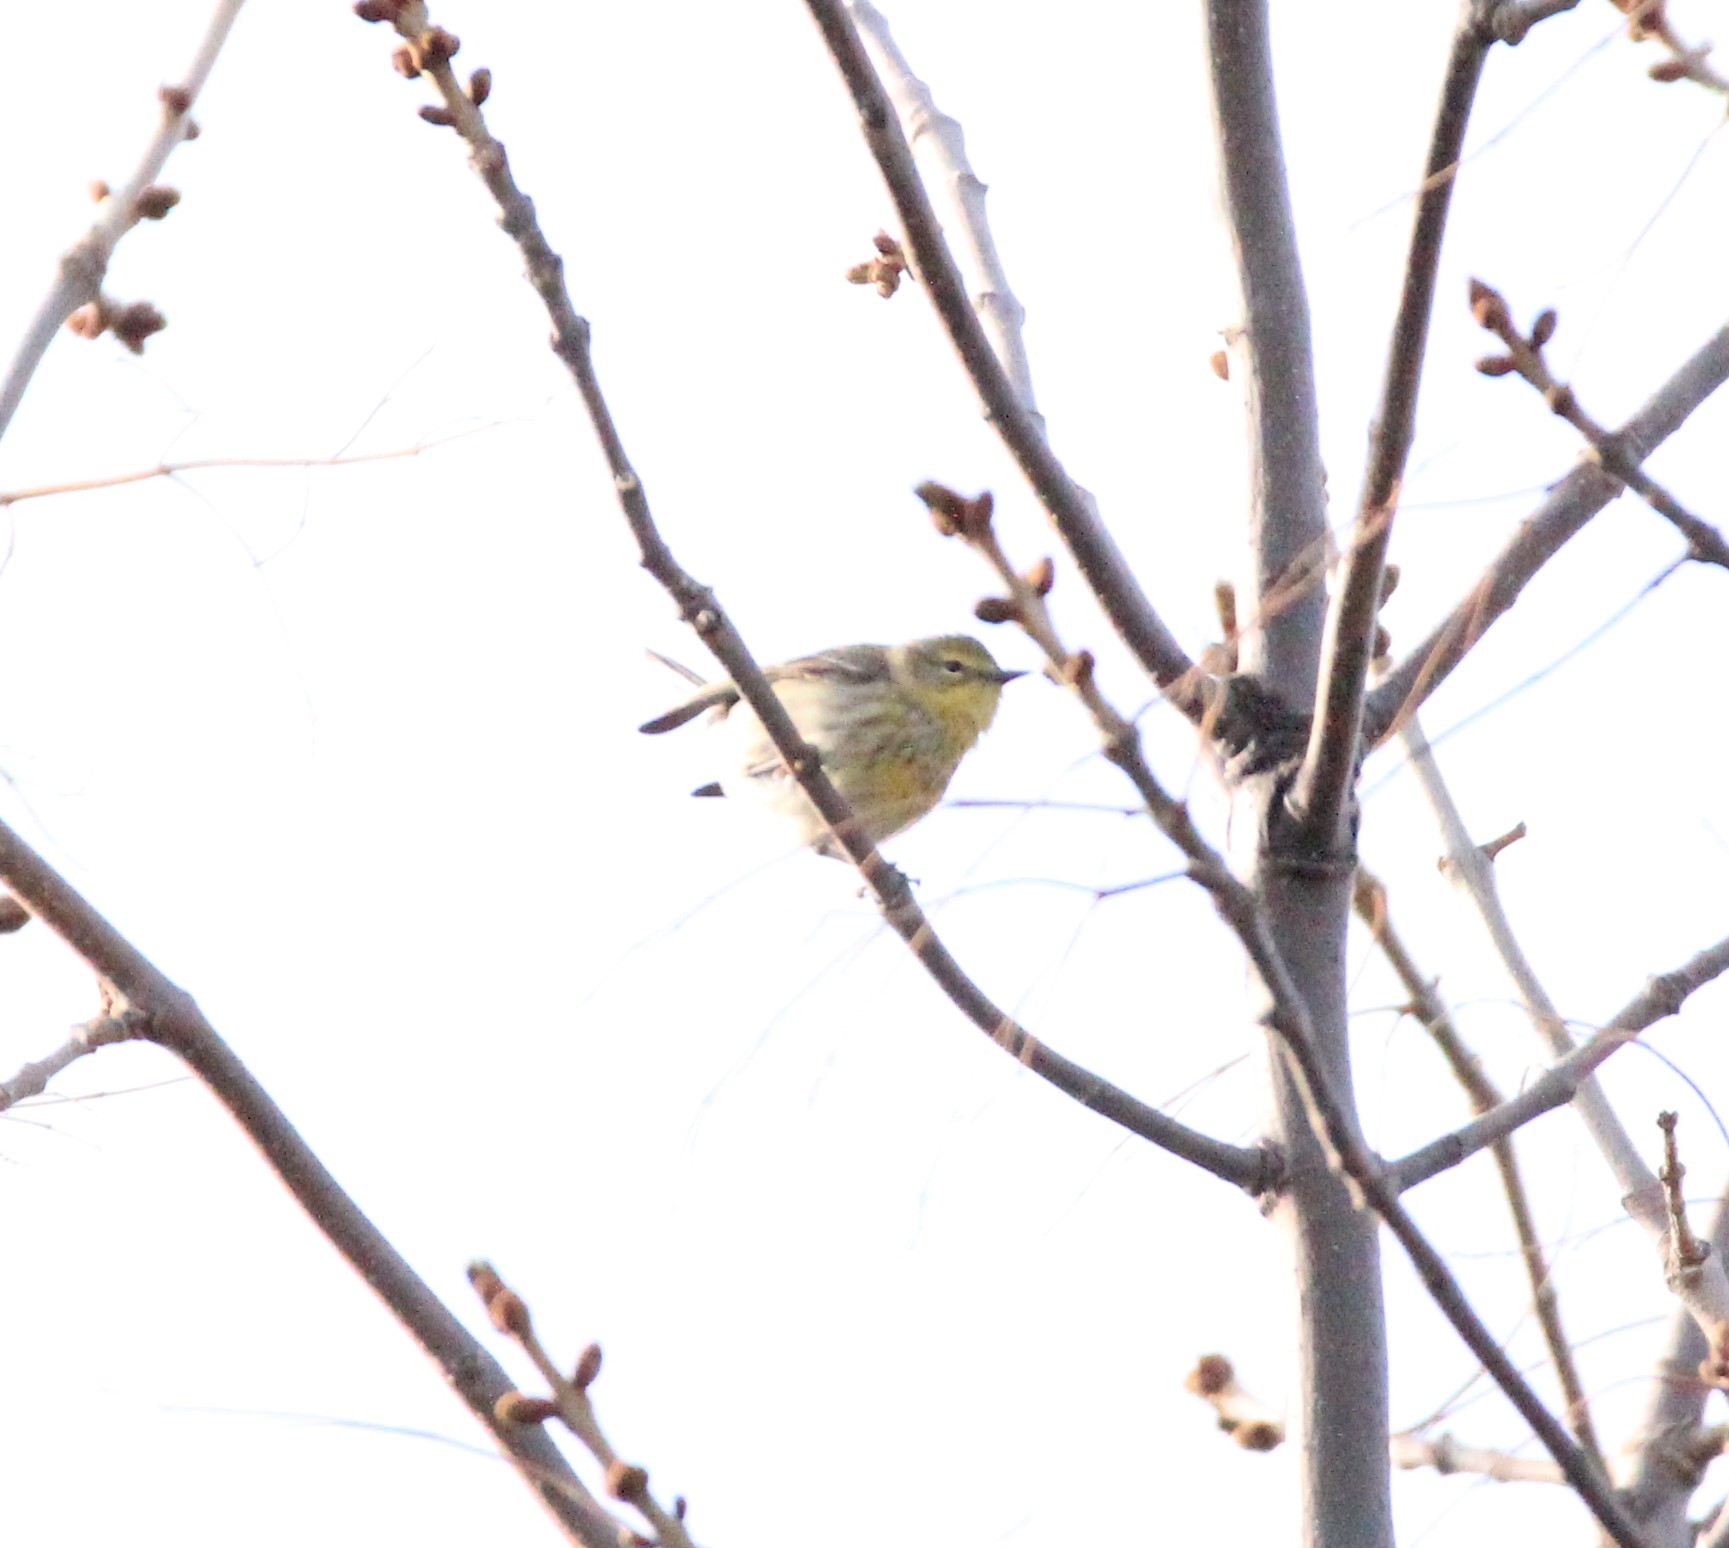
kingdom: Animalia
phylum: Chordata
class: Aves
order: Passeriformes
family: Parulidae
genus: Setophaga
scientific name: Setophaga tigrina
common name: Cape may warbler
